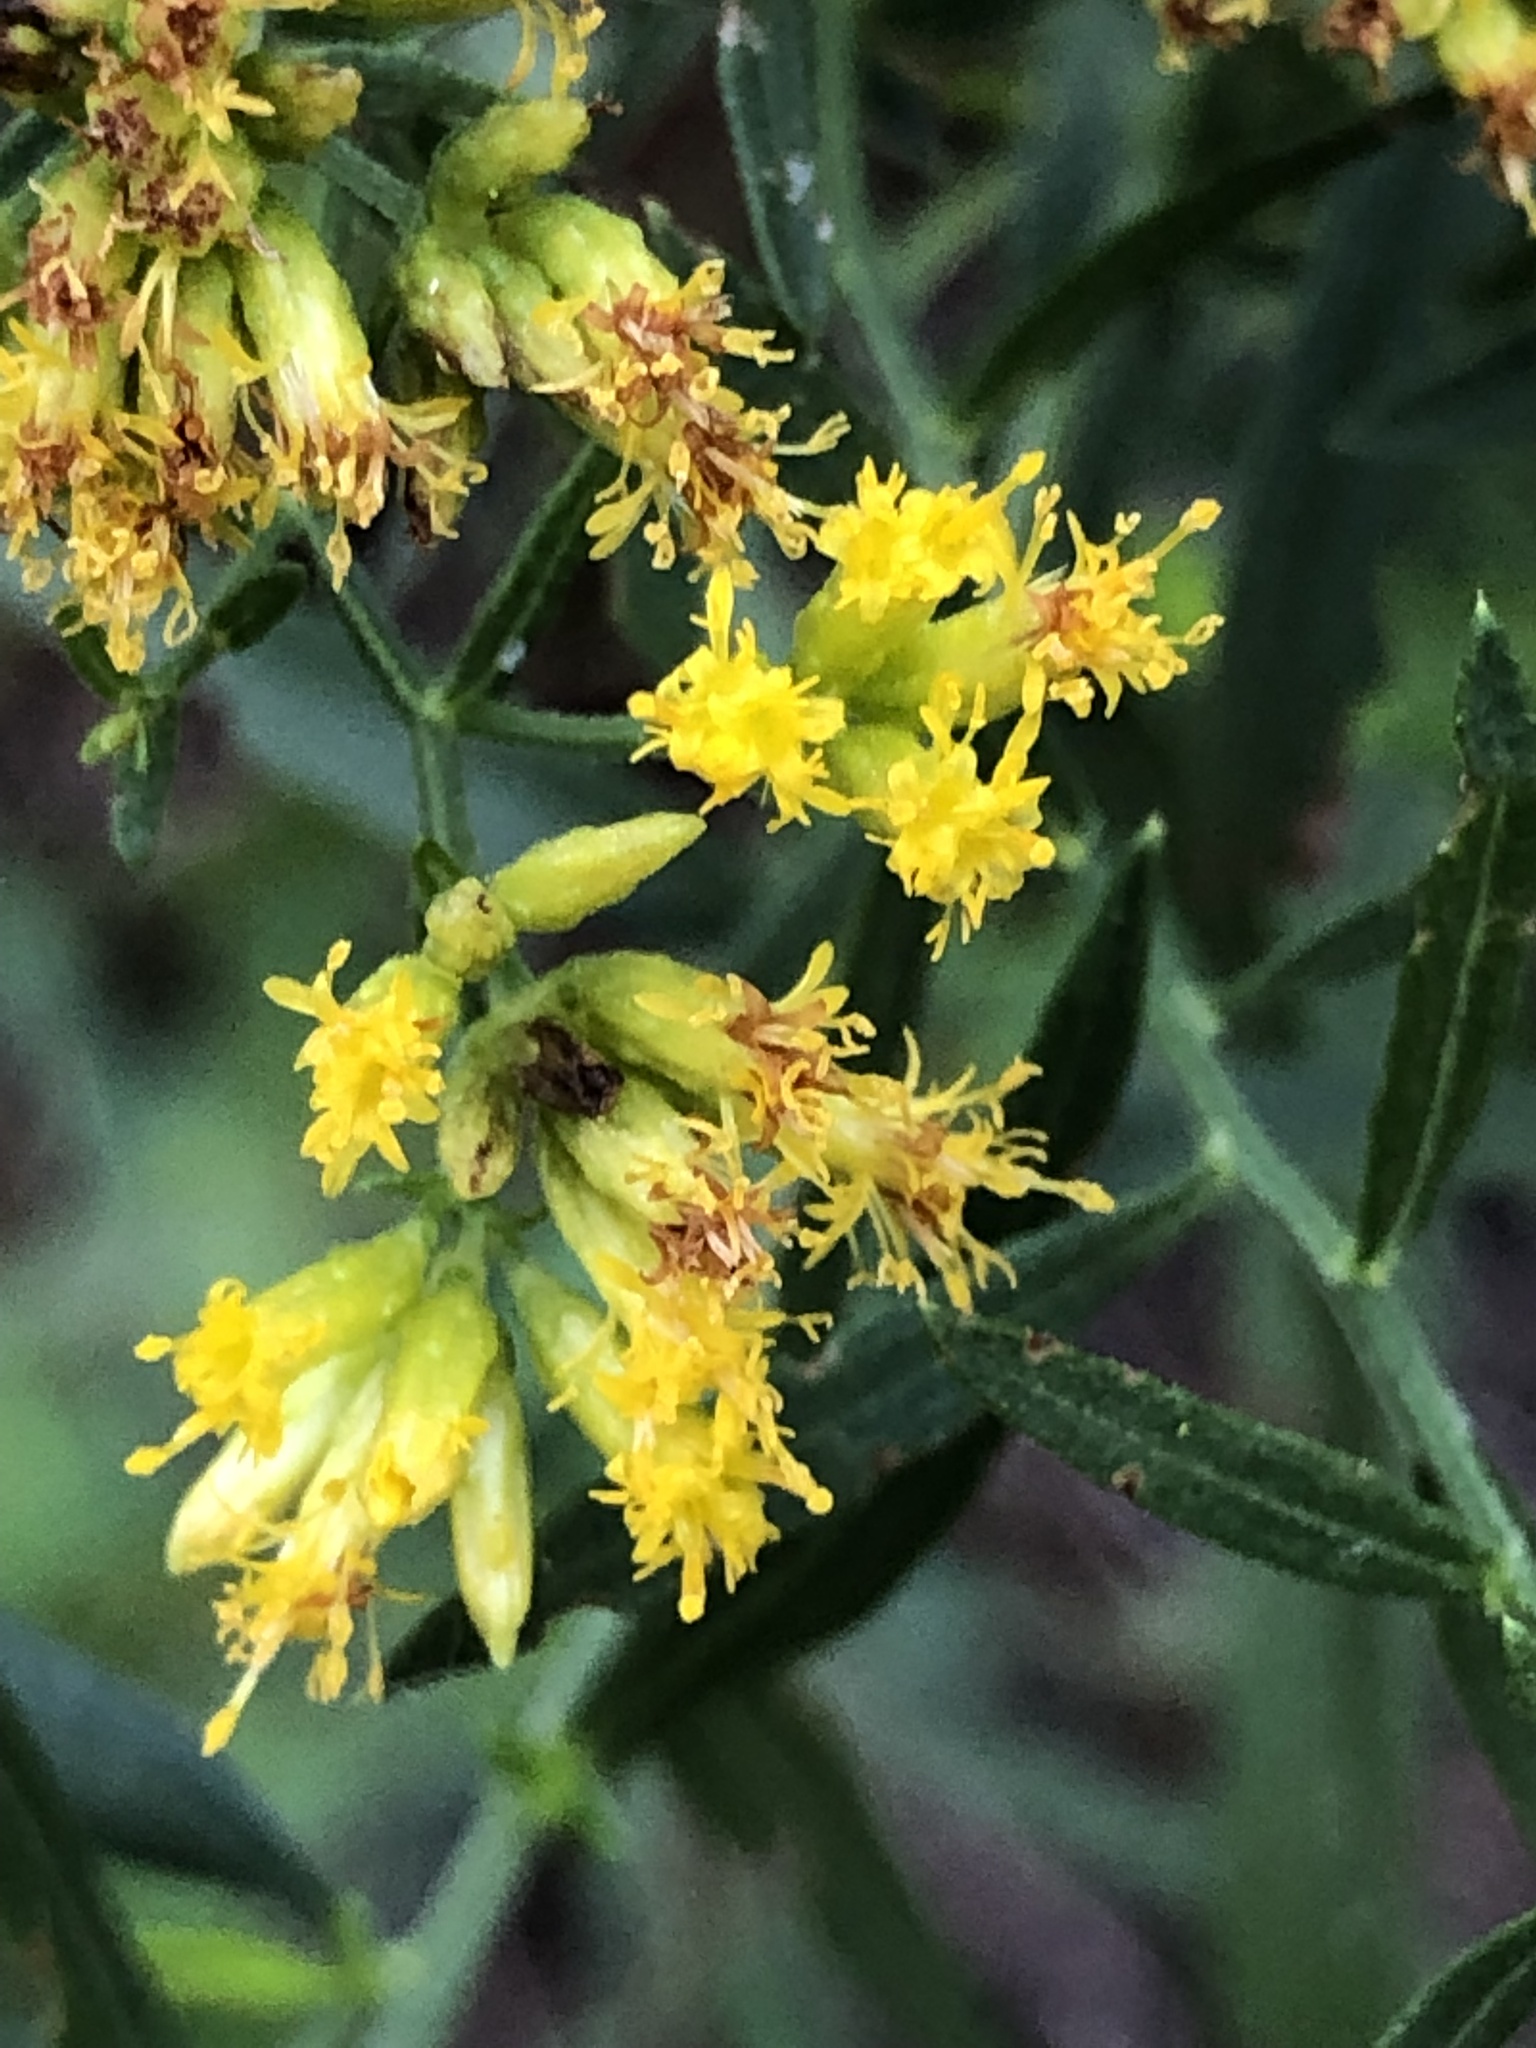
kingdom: Plantae
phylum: Tracheophyta
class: Magnoliopsida
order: Asterales
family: Asteraceae
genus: Euthamia
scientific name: Euthamia graminifolia
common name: Common goldentop
